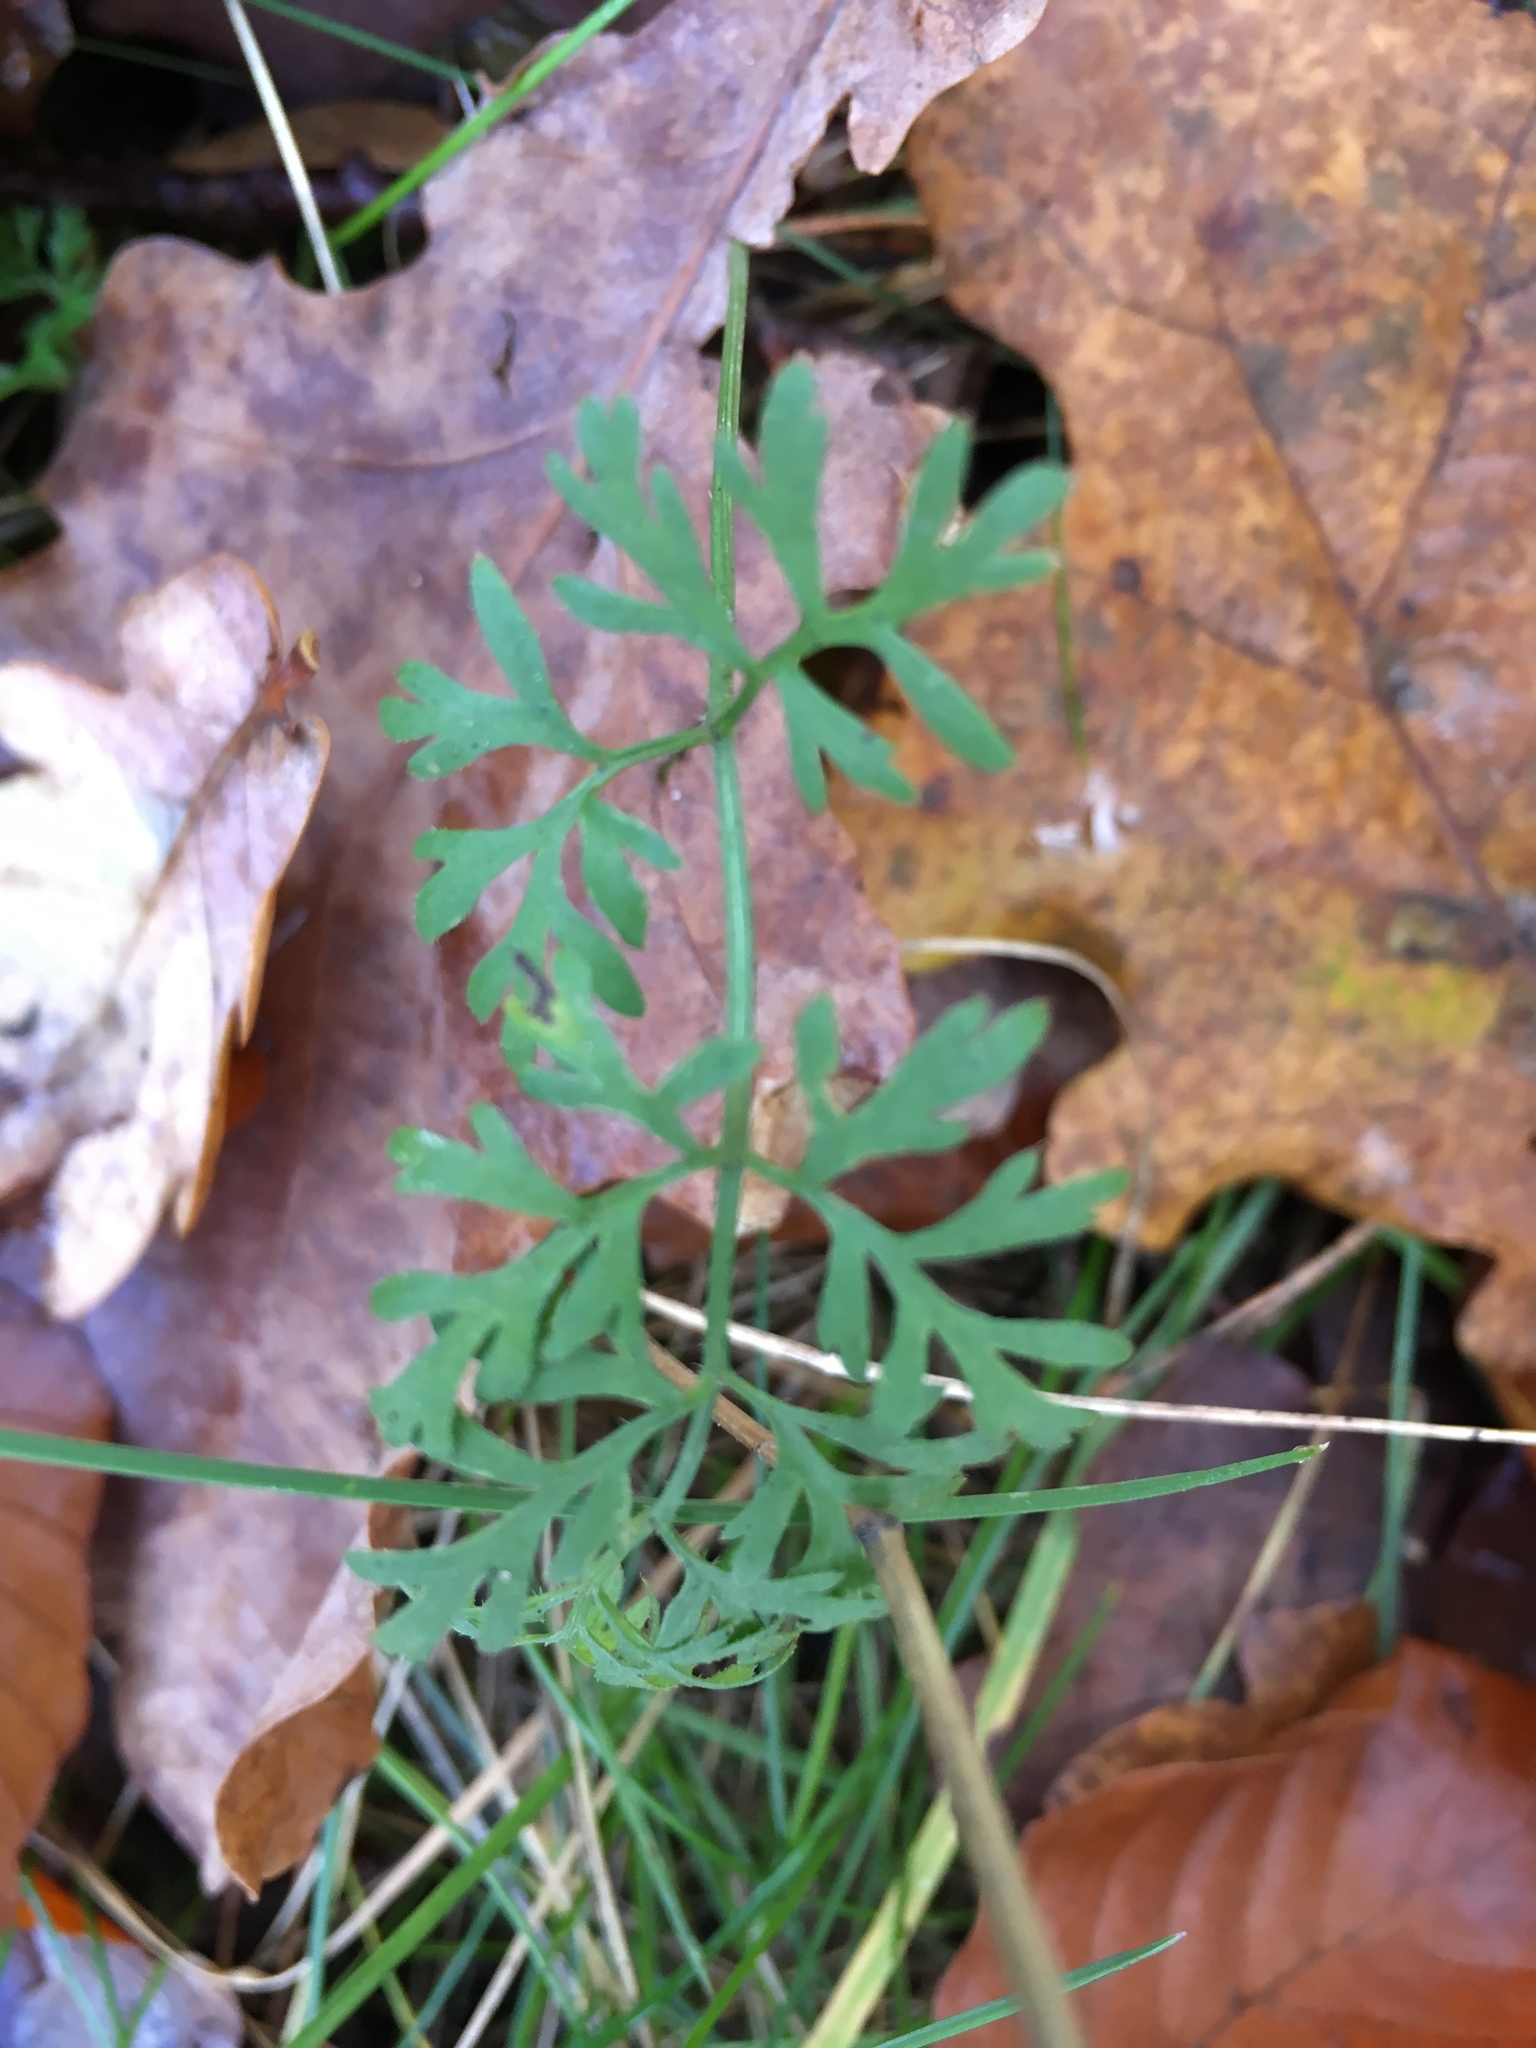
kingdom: Plantae
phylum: Tracheophyta
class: Magnoliopsida
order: Apiales
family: Apiaceae
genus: Daucus
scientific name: Daucus carota
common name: Wild carrot
